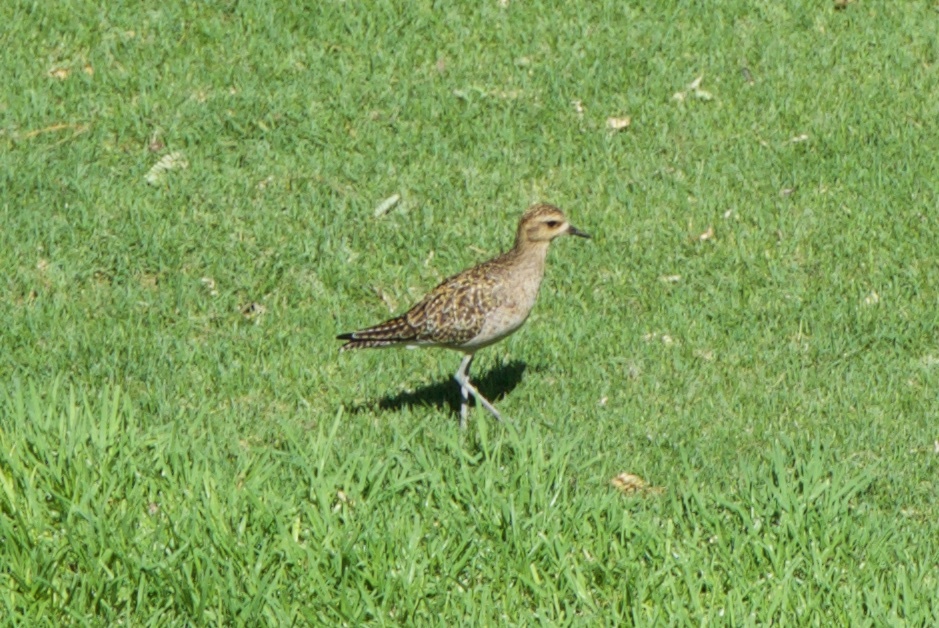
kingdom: Animalia
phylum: Chordata
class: Aves
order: Charadriiformes
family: Charadriidae
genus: Pluvialis
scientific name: Pluvialis fulva
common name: Pacific golden plover
